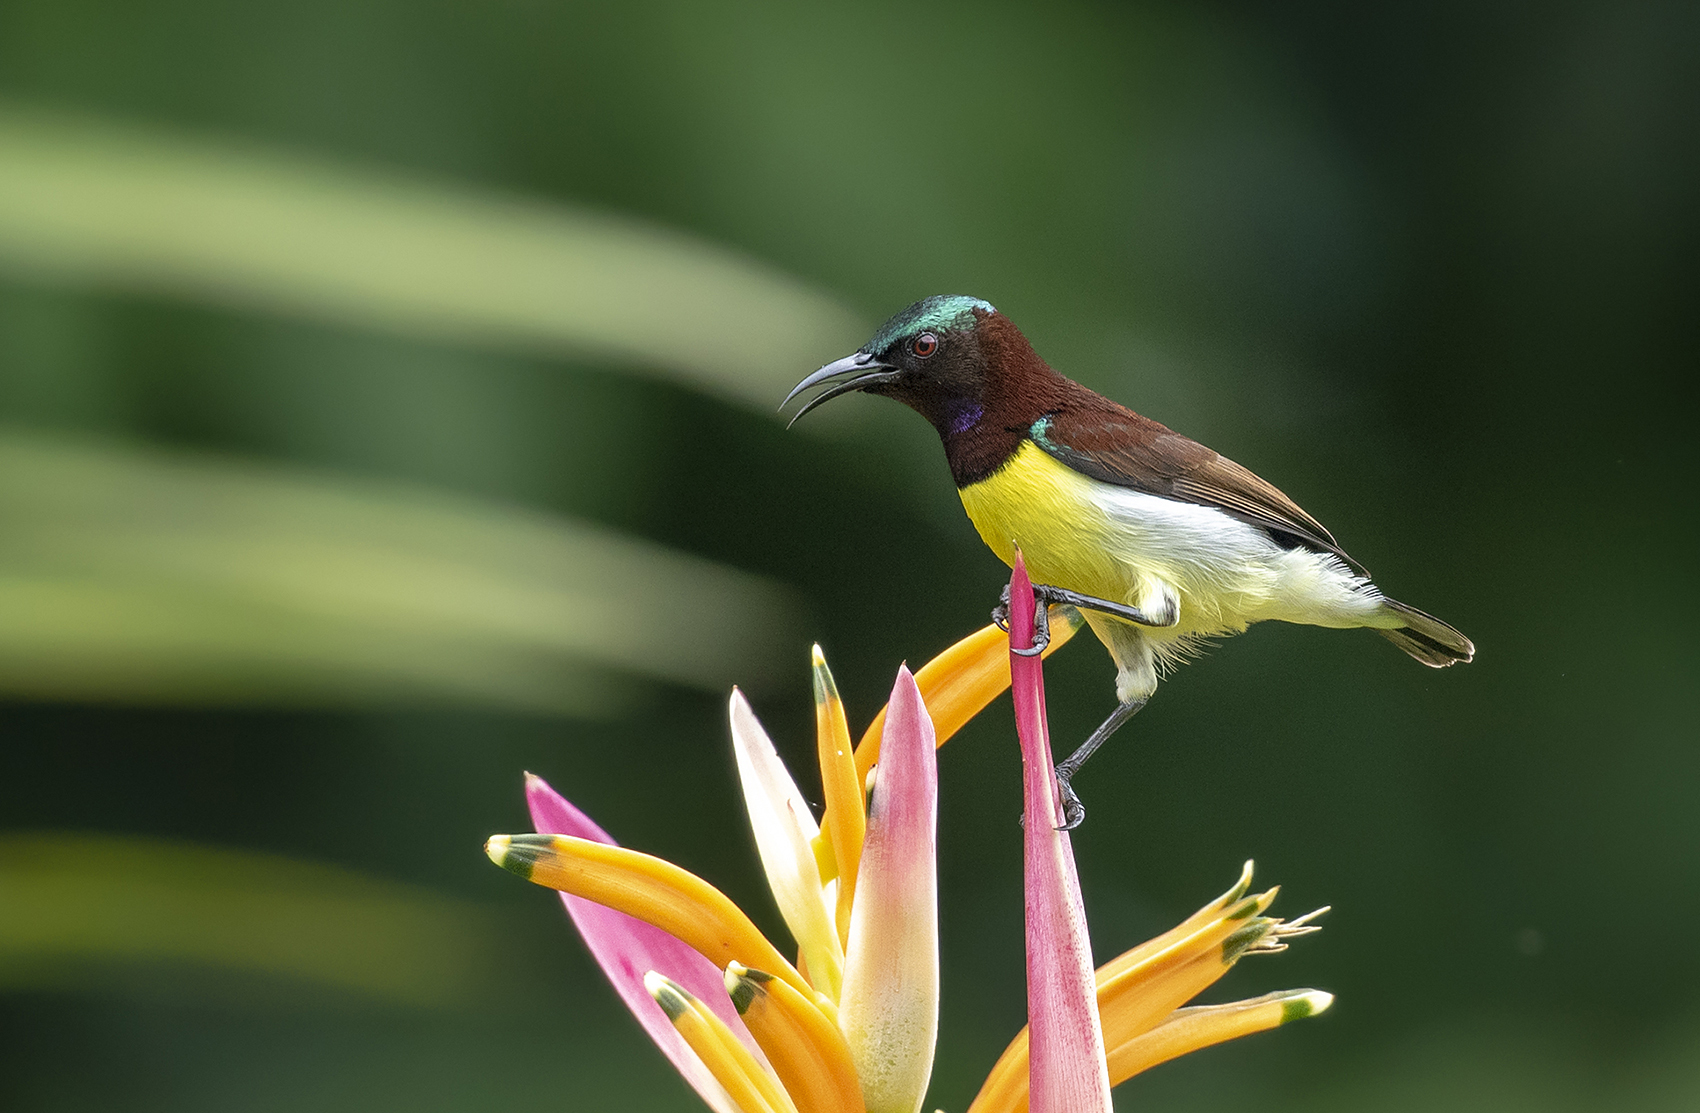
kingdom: Animalia
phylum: Chordata
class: Aves
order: Passeriformes
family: Nectariniidae
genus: Leptocoma
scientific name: Leptocoma zeylonica
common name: Purple-rumped sunbird
